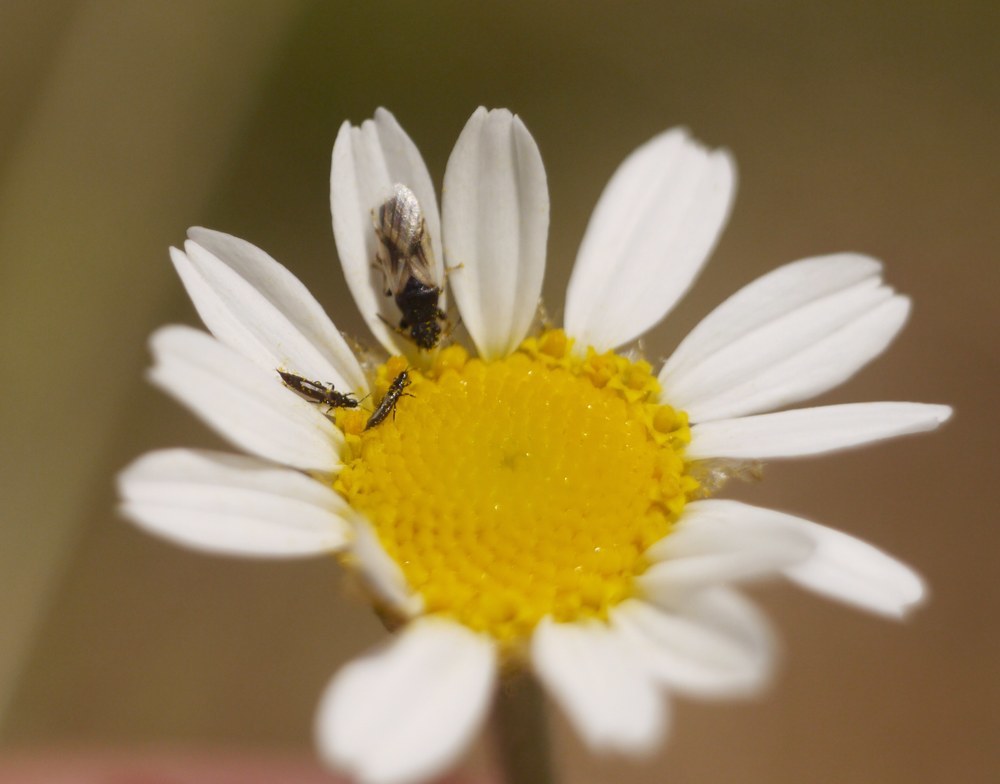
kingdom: Animalia
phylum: Arthropoda
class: Insecta
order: Hemiptera
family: Oxycarenidae
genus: Metopoplax
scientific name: Metopoplax origani
